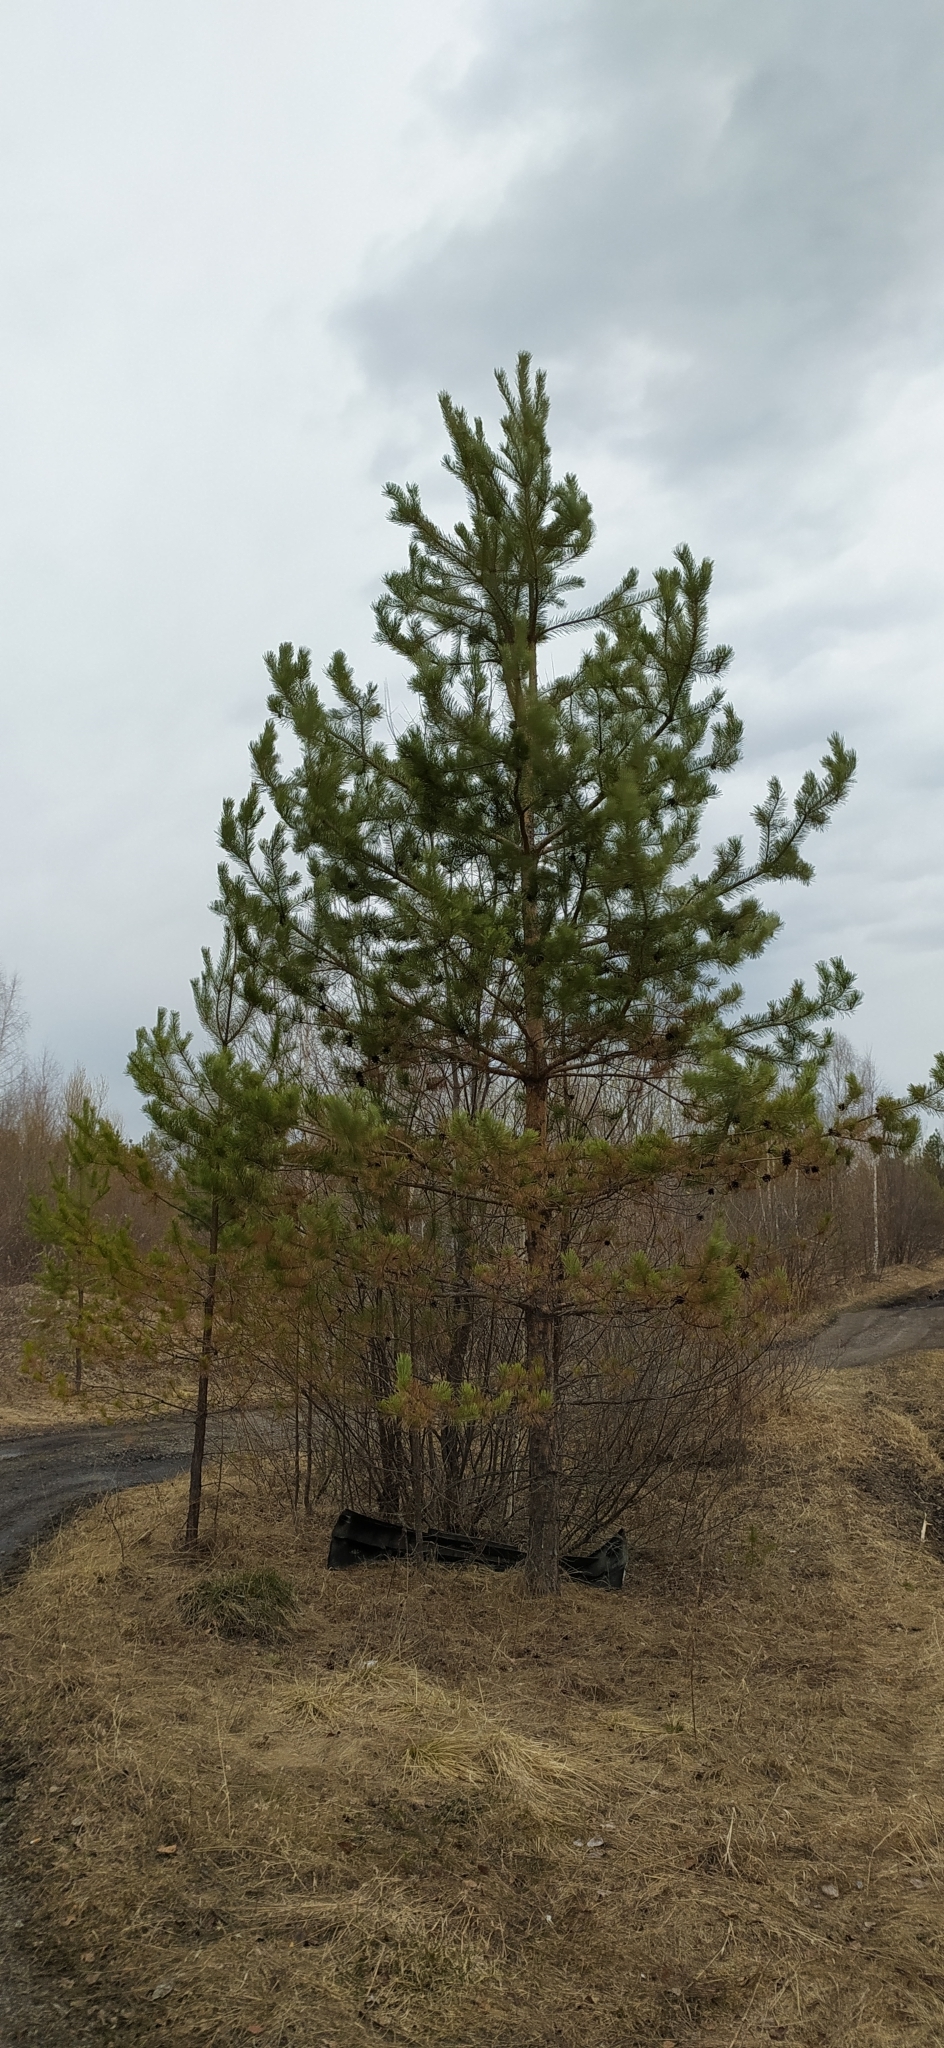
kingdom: Plantae
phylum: Tracheophyta
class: Pinopsida
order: Pinales
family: Pinaceae
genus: Pinus
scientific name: Pinus sylvestris
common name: Scots pine
